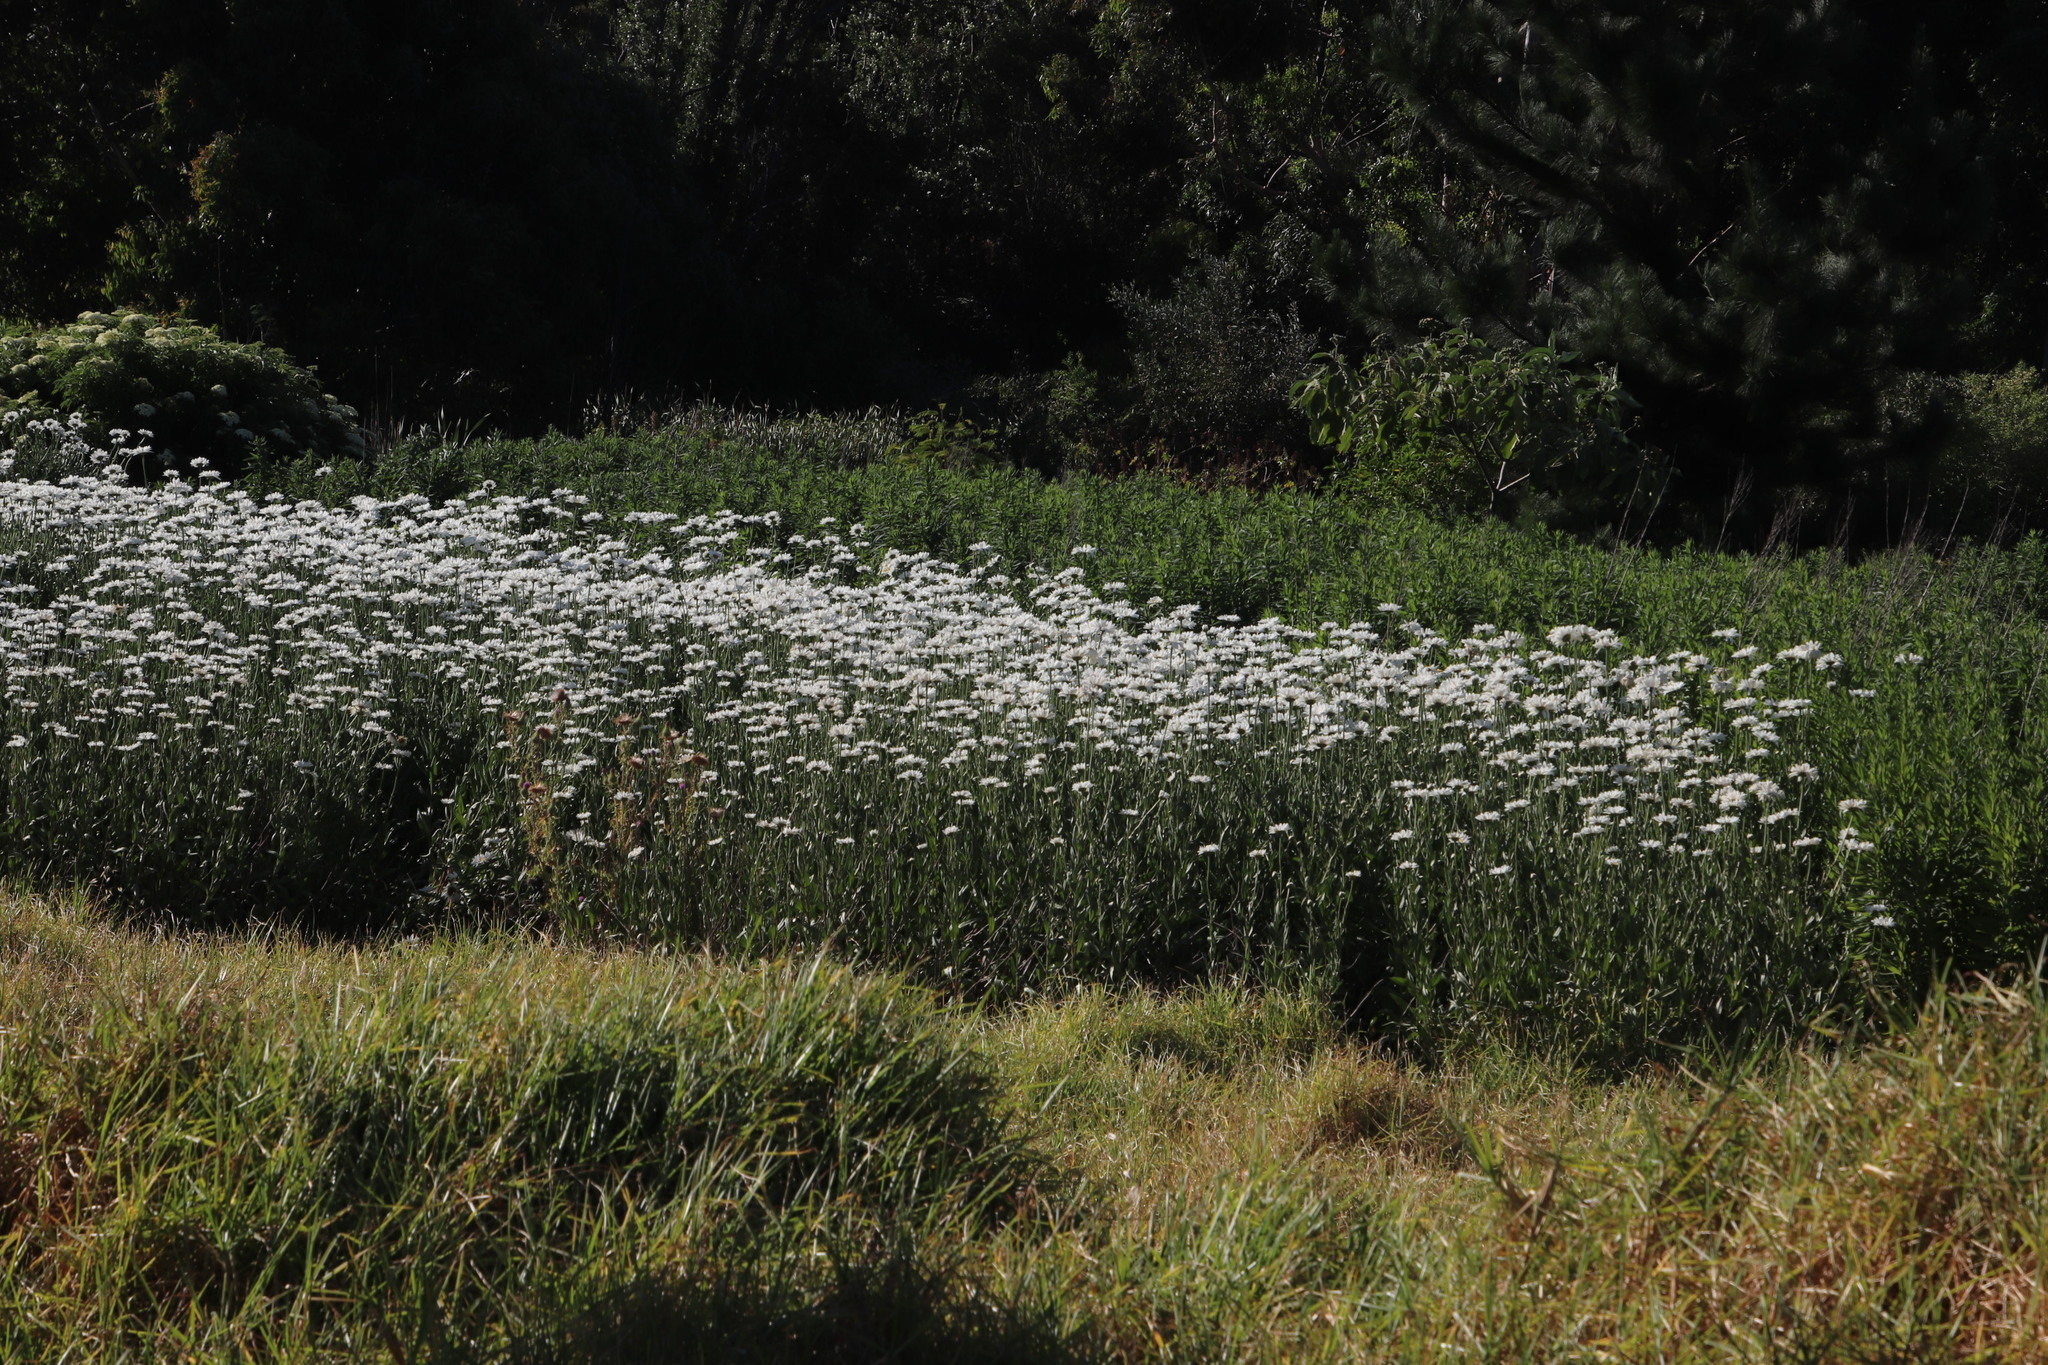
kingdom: Plantae
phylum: Tracheophyta
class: Magnoliopsida
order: Asterales
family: Asteraceae
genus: Leucanthemum
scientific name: Leucanthemum maximum
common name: Max chrysanthemum
